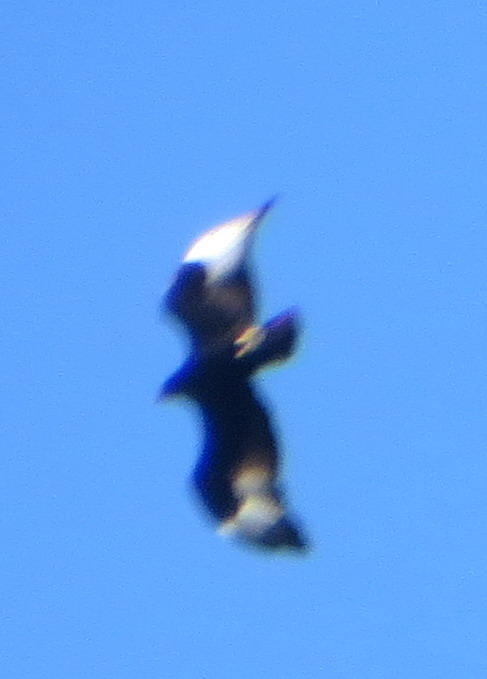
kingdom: Animalia
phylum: Chordata
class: Aves
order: Accipitriformes
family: Accipitridae
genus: Aquila
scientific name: Aquila verreauxii
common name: Verreaux's eagle
